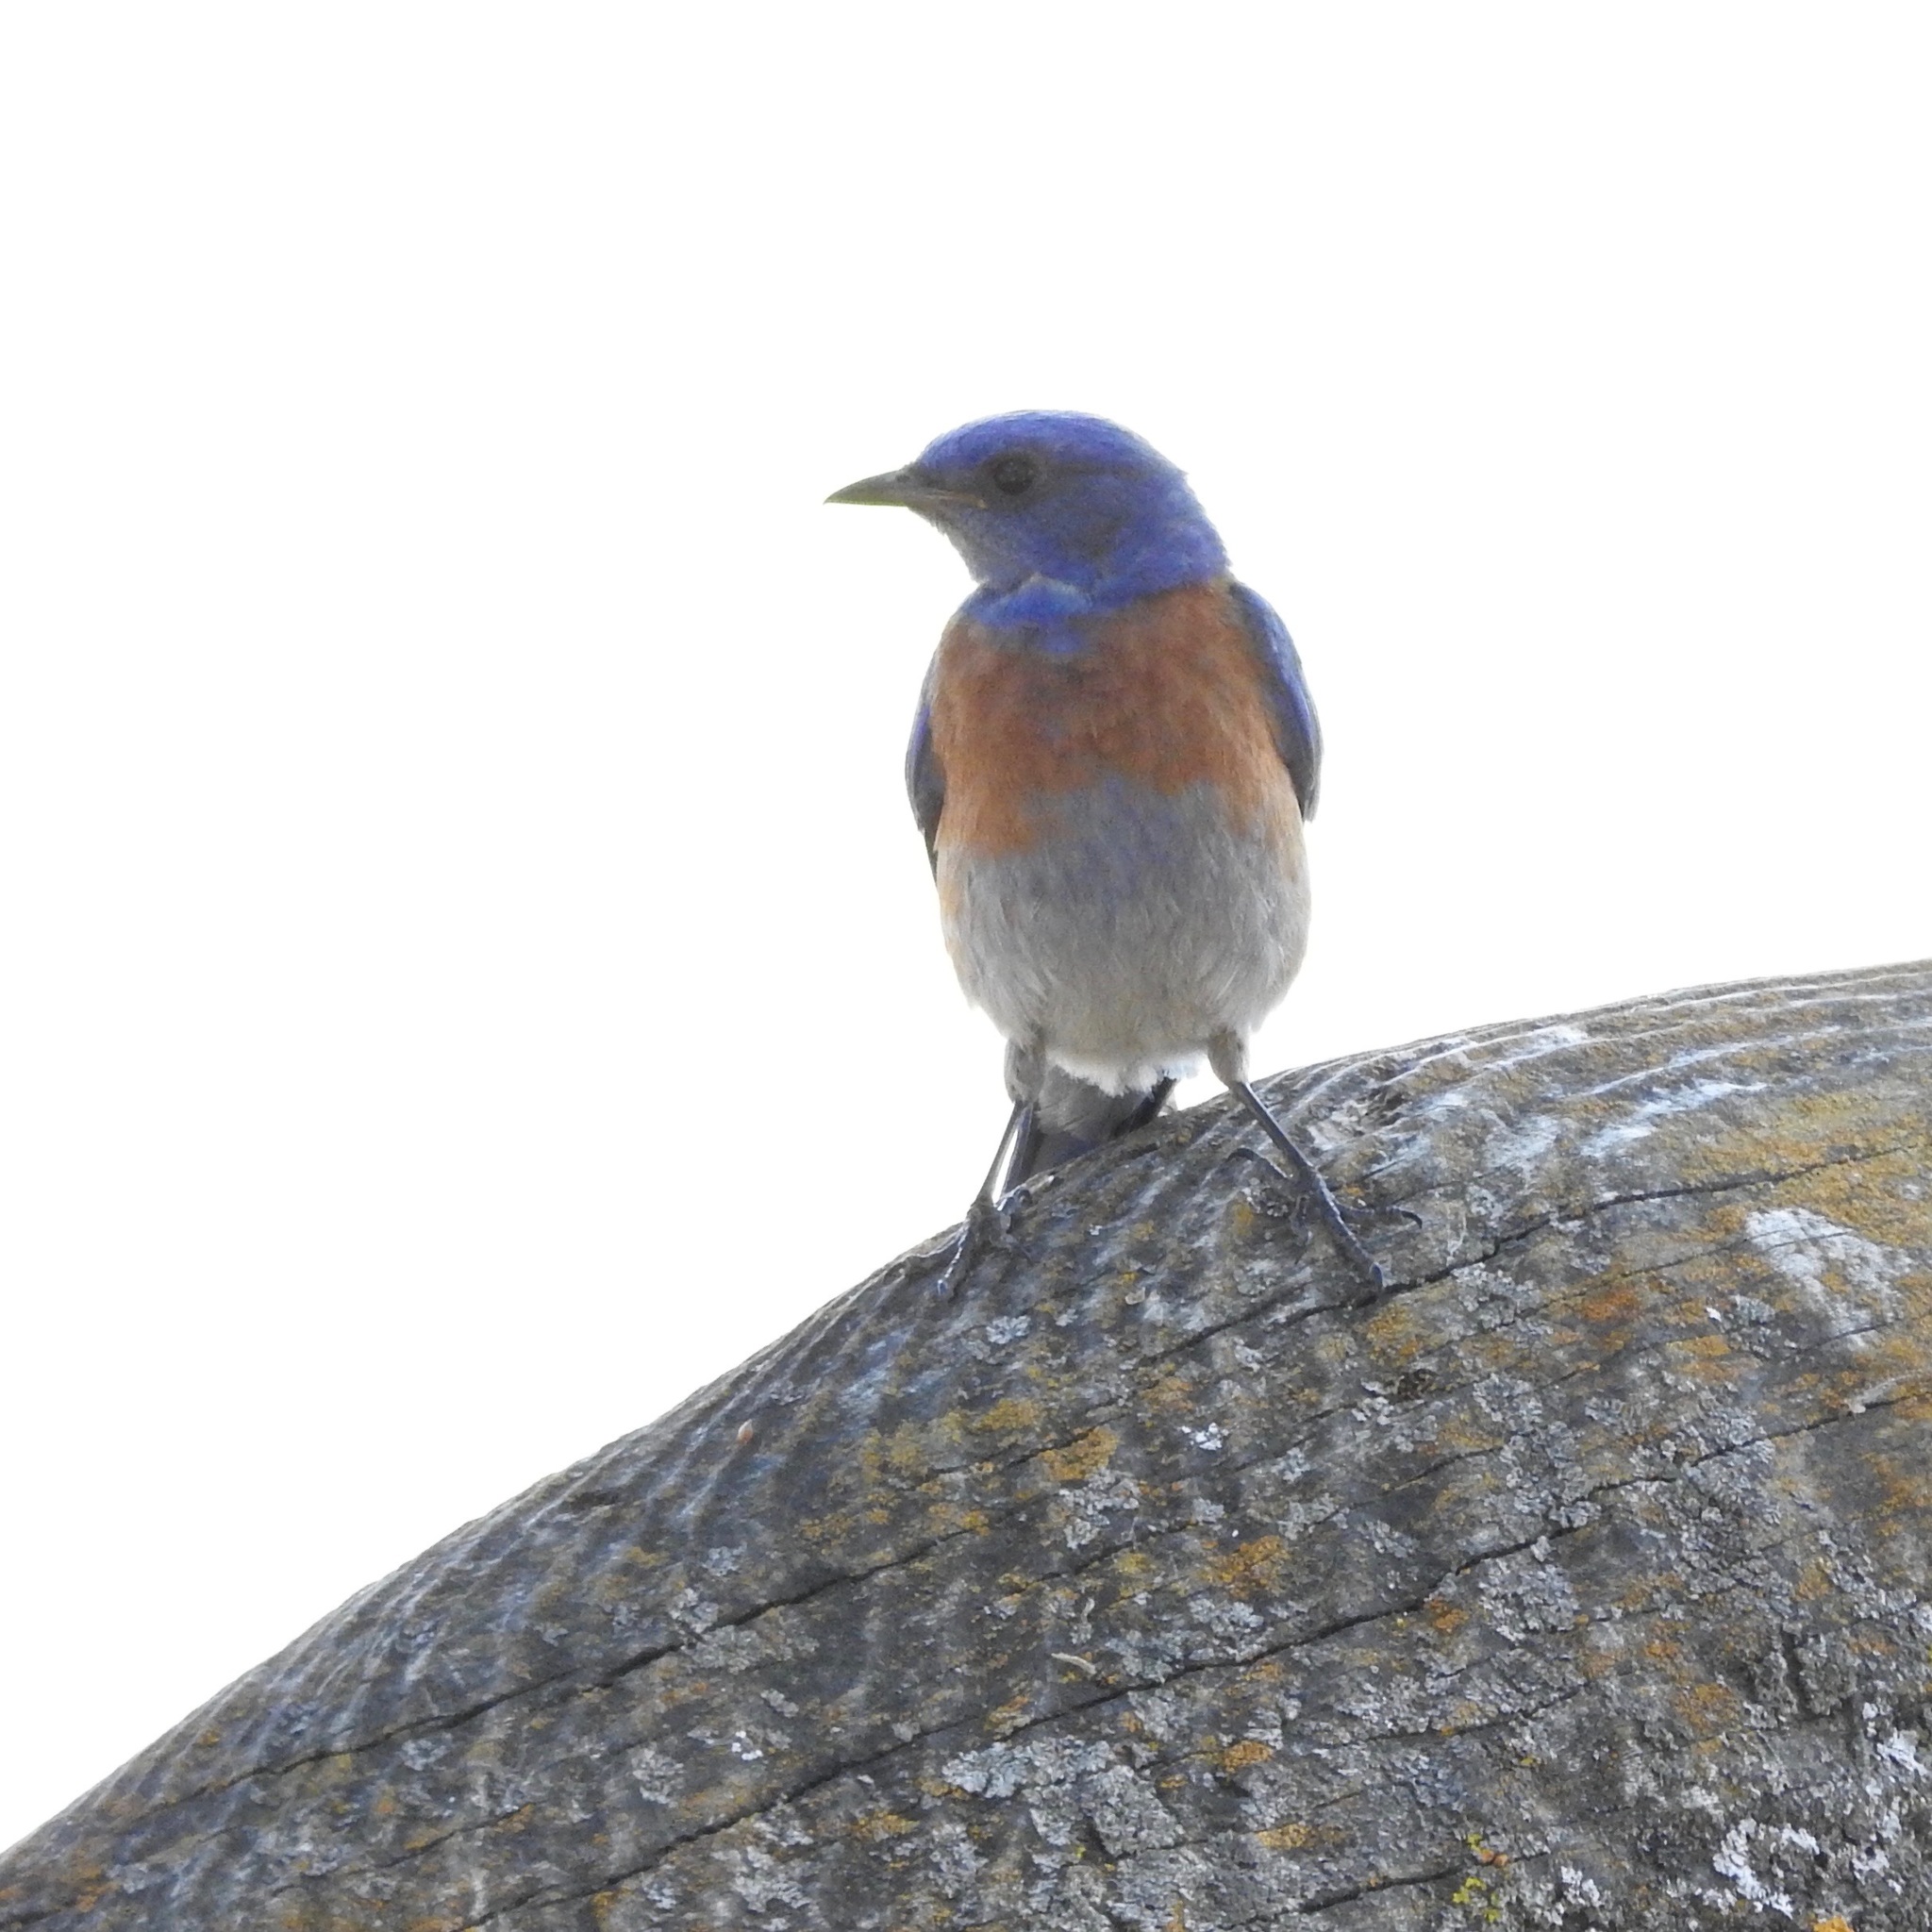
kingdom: Animalia
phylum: Chordata
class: Aves
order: Passeriformes
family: Turdidae
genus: Sialia
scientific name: Sialia mexicana
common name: Western bluebird
